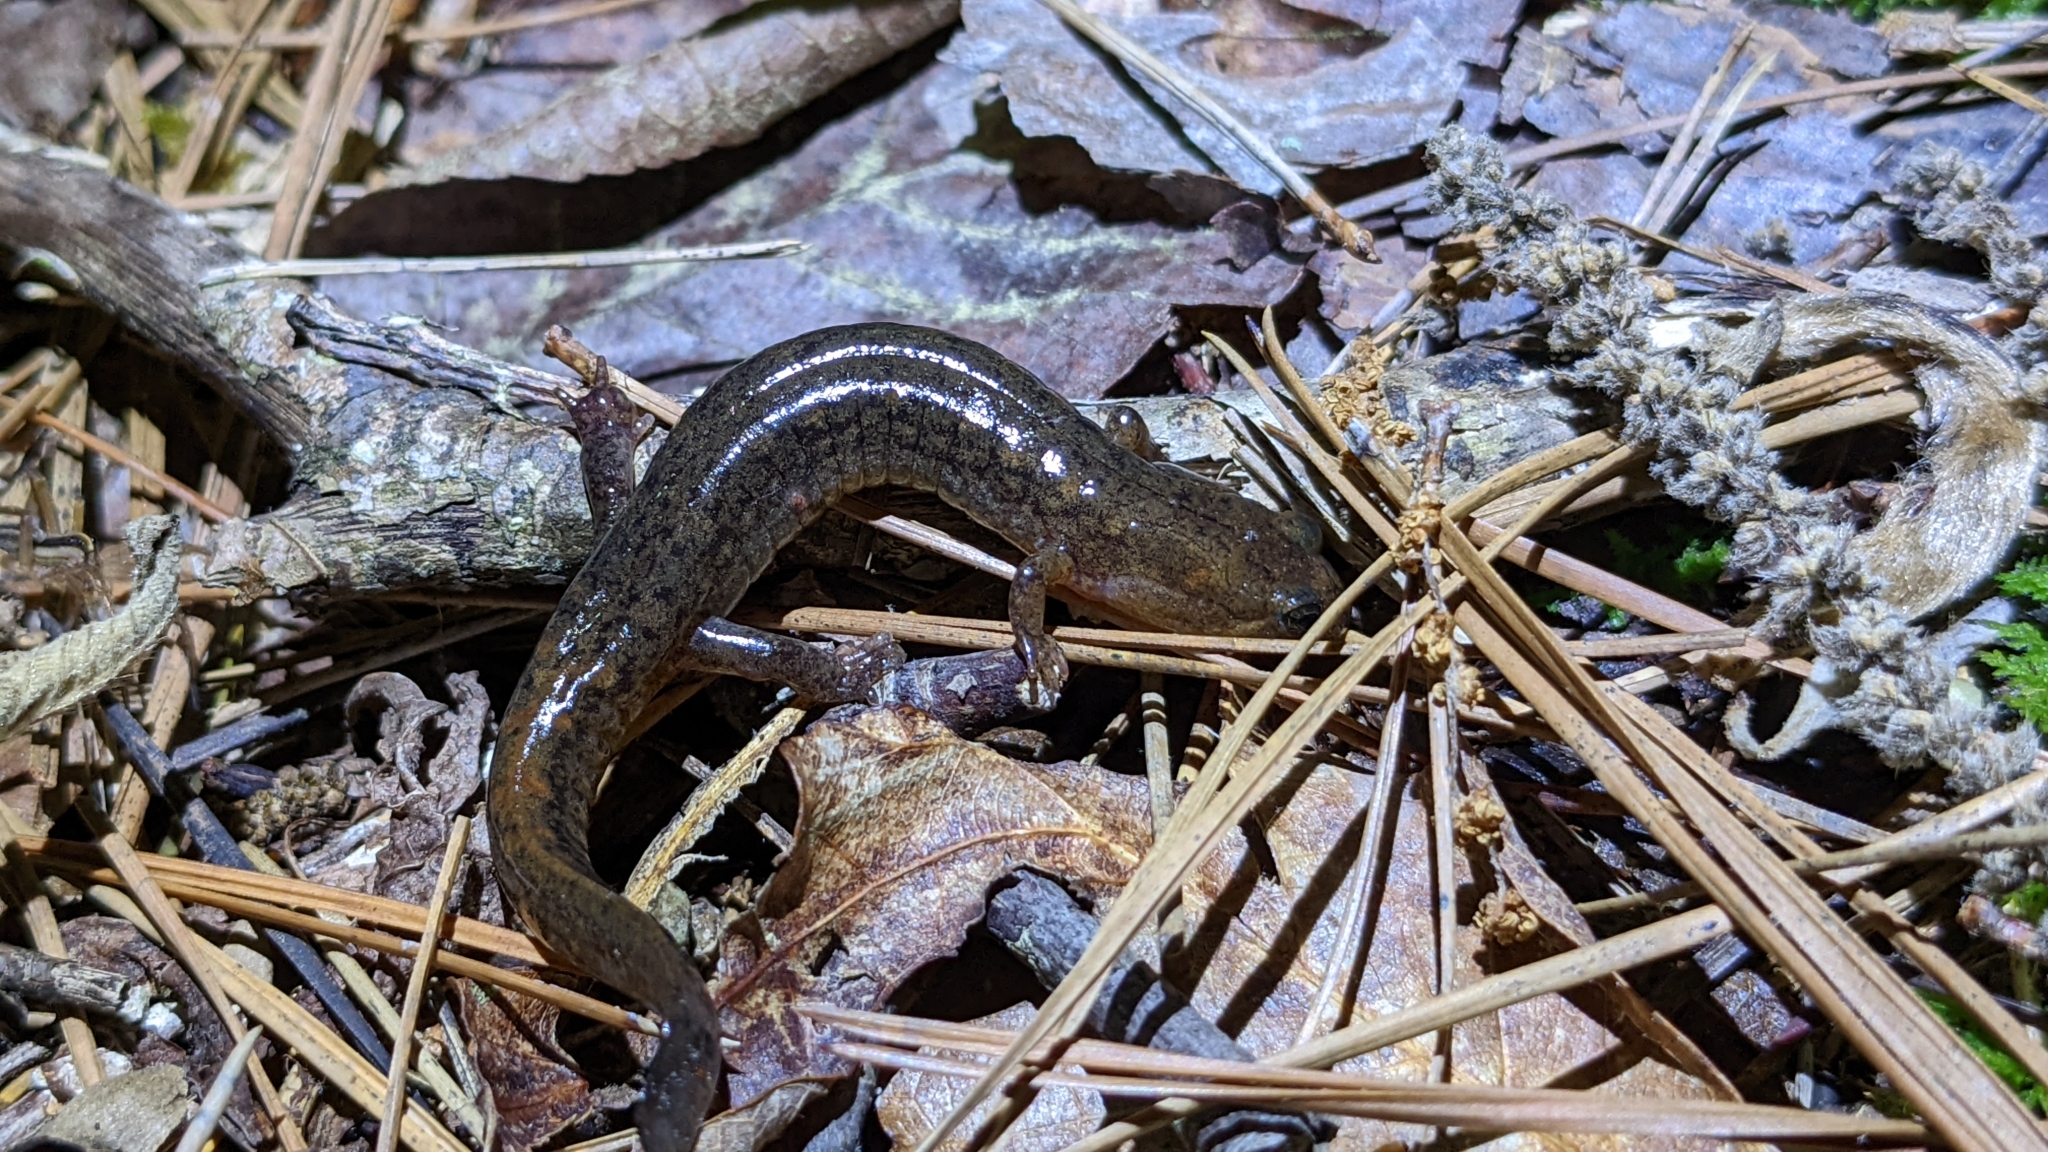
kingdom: Animalia
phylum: Chordata
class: Amphibia
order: Caudata
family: Plethodontidae
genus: Desmognathus
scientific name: Desmognathus brimleyorum
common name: Ouachita dusky salamander
